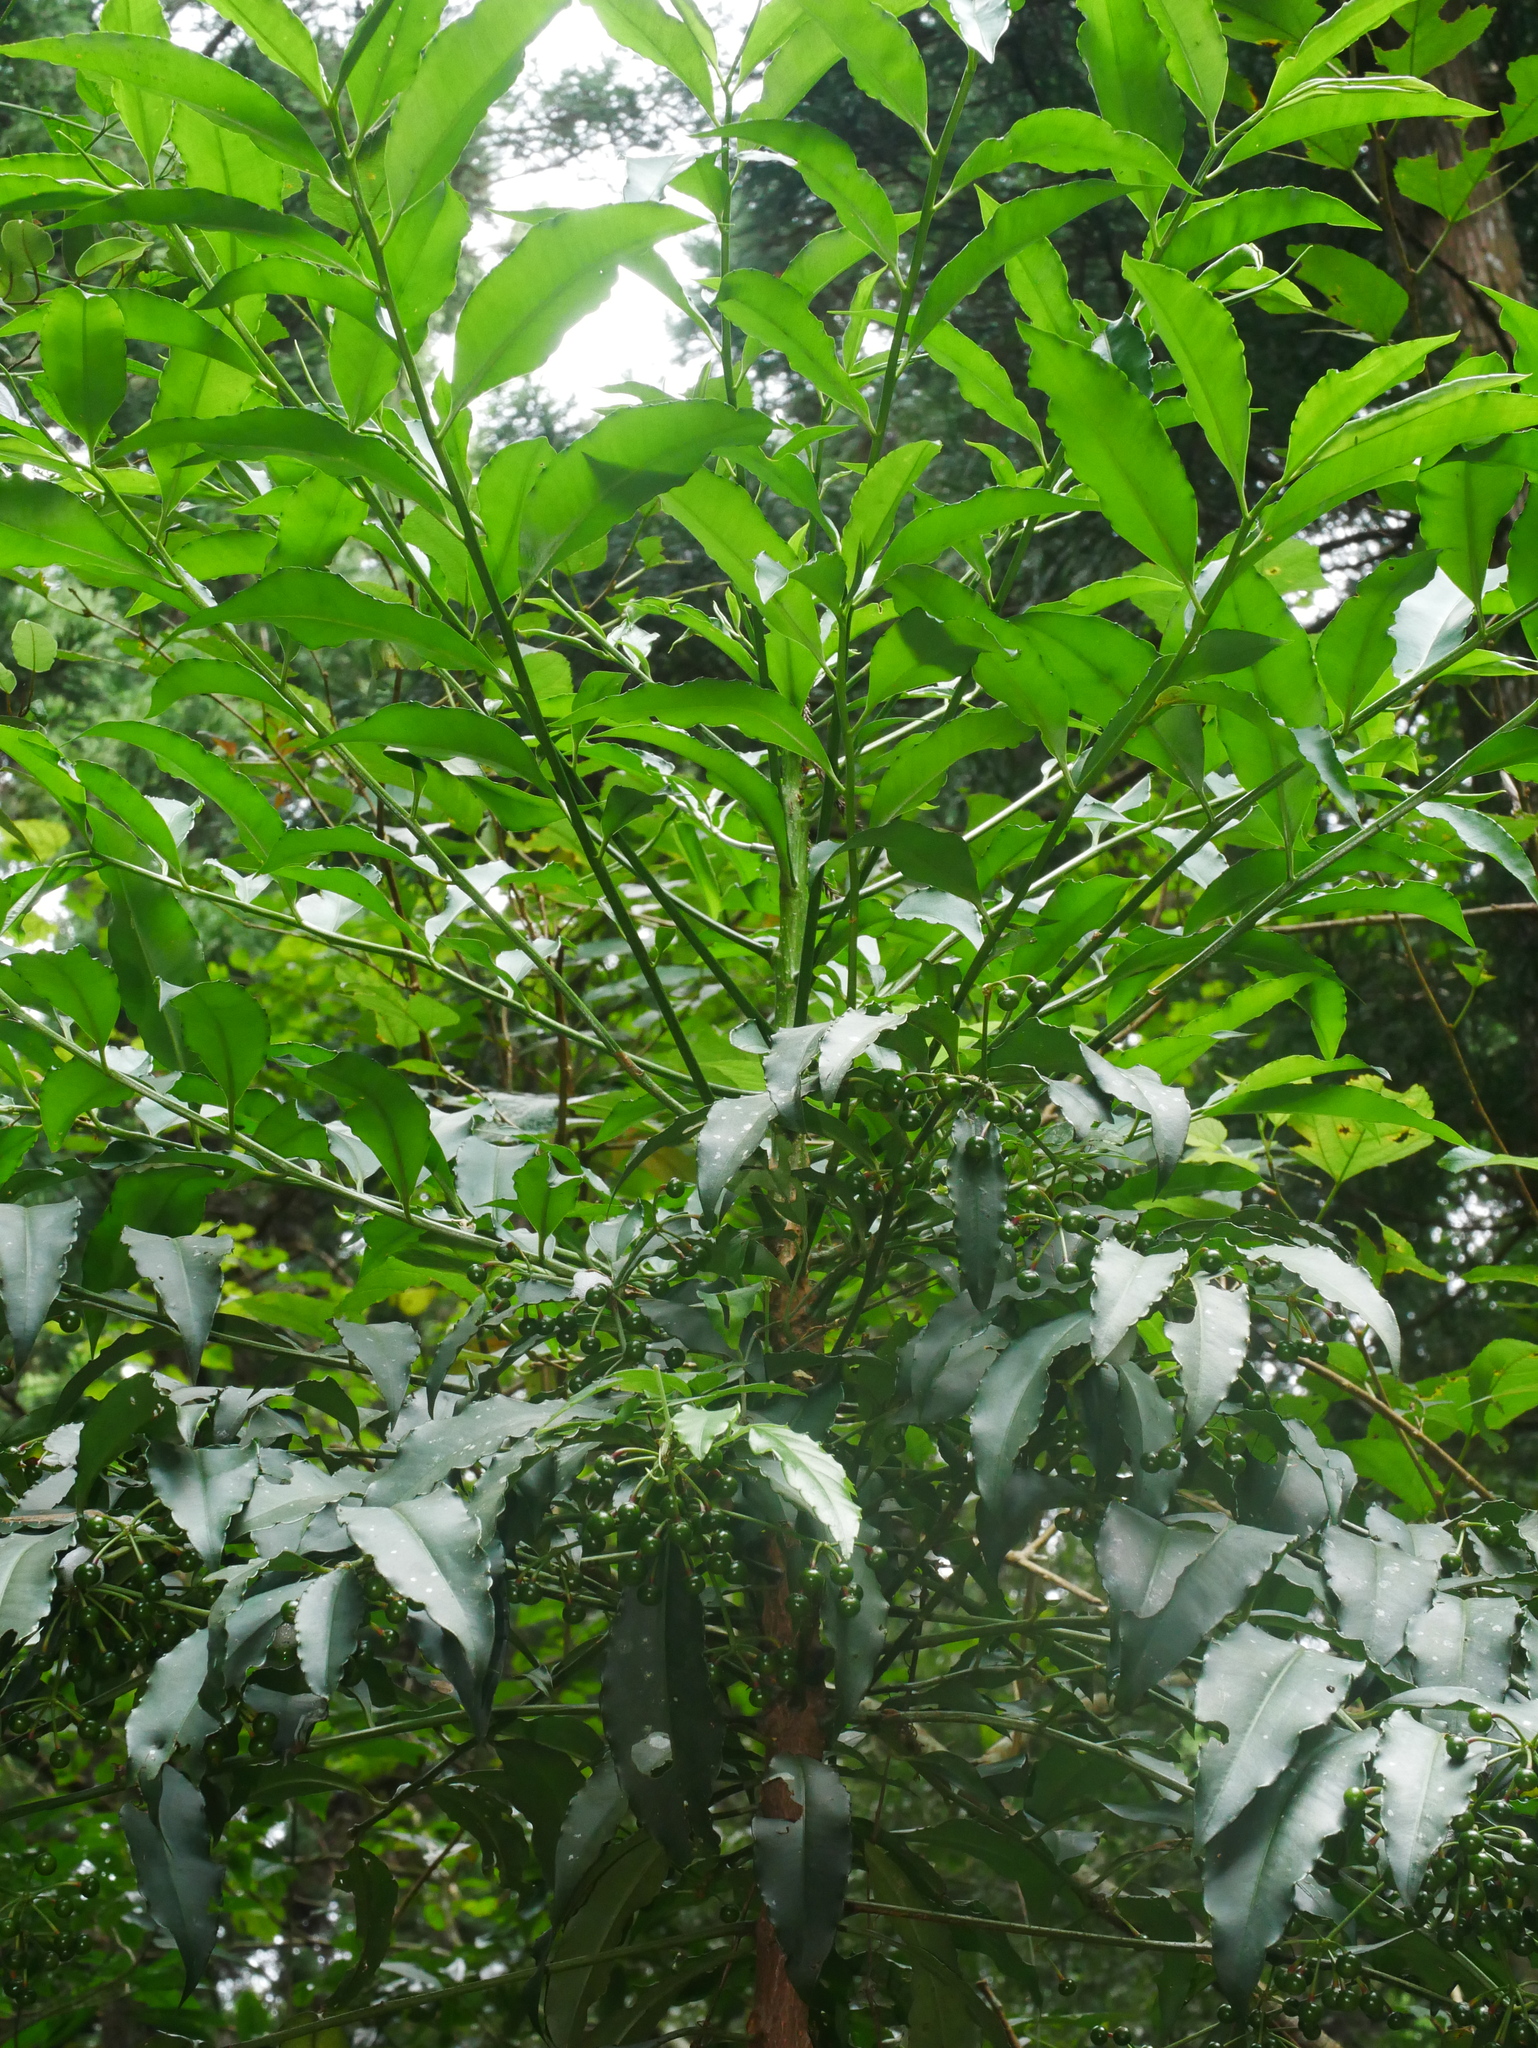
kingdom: Plantae
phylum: Tracheophyta
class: Magnoliopsida
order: Ericales
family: Primulaceae
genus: Ardisia
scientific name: Ardisia polysticta
